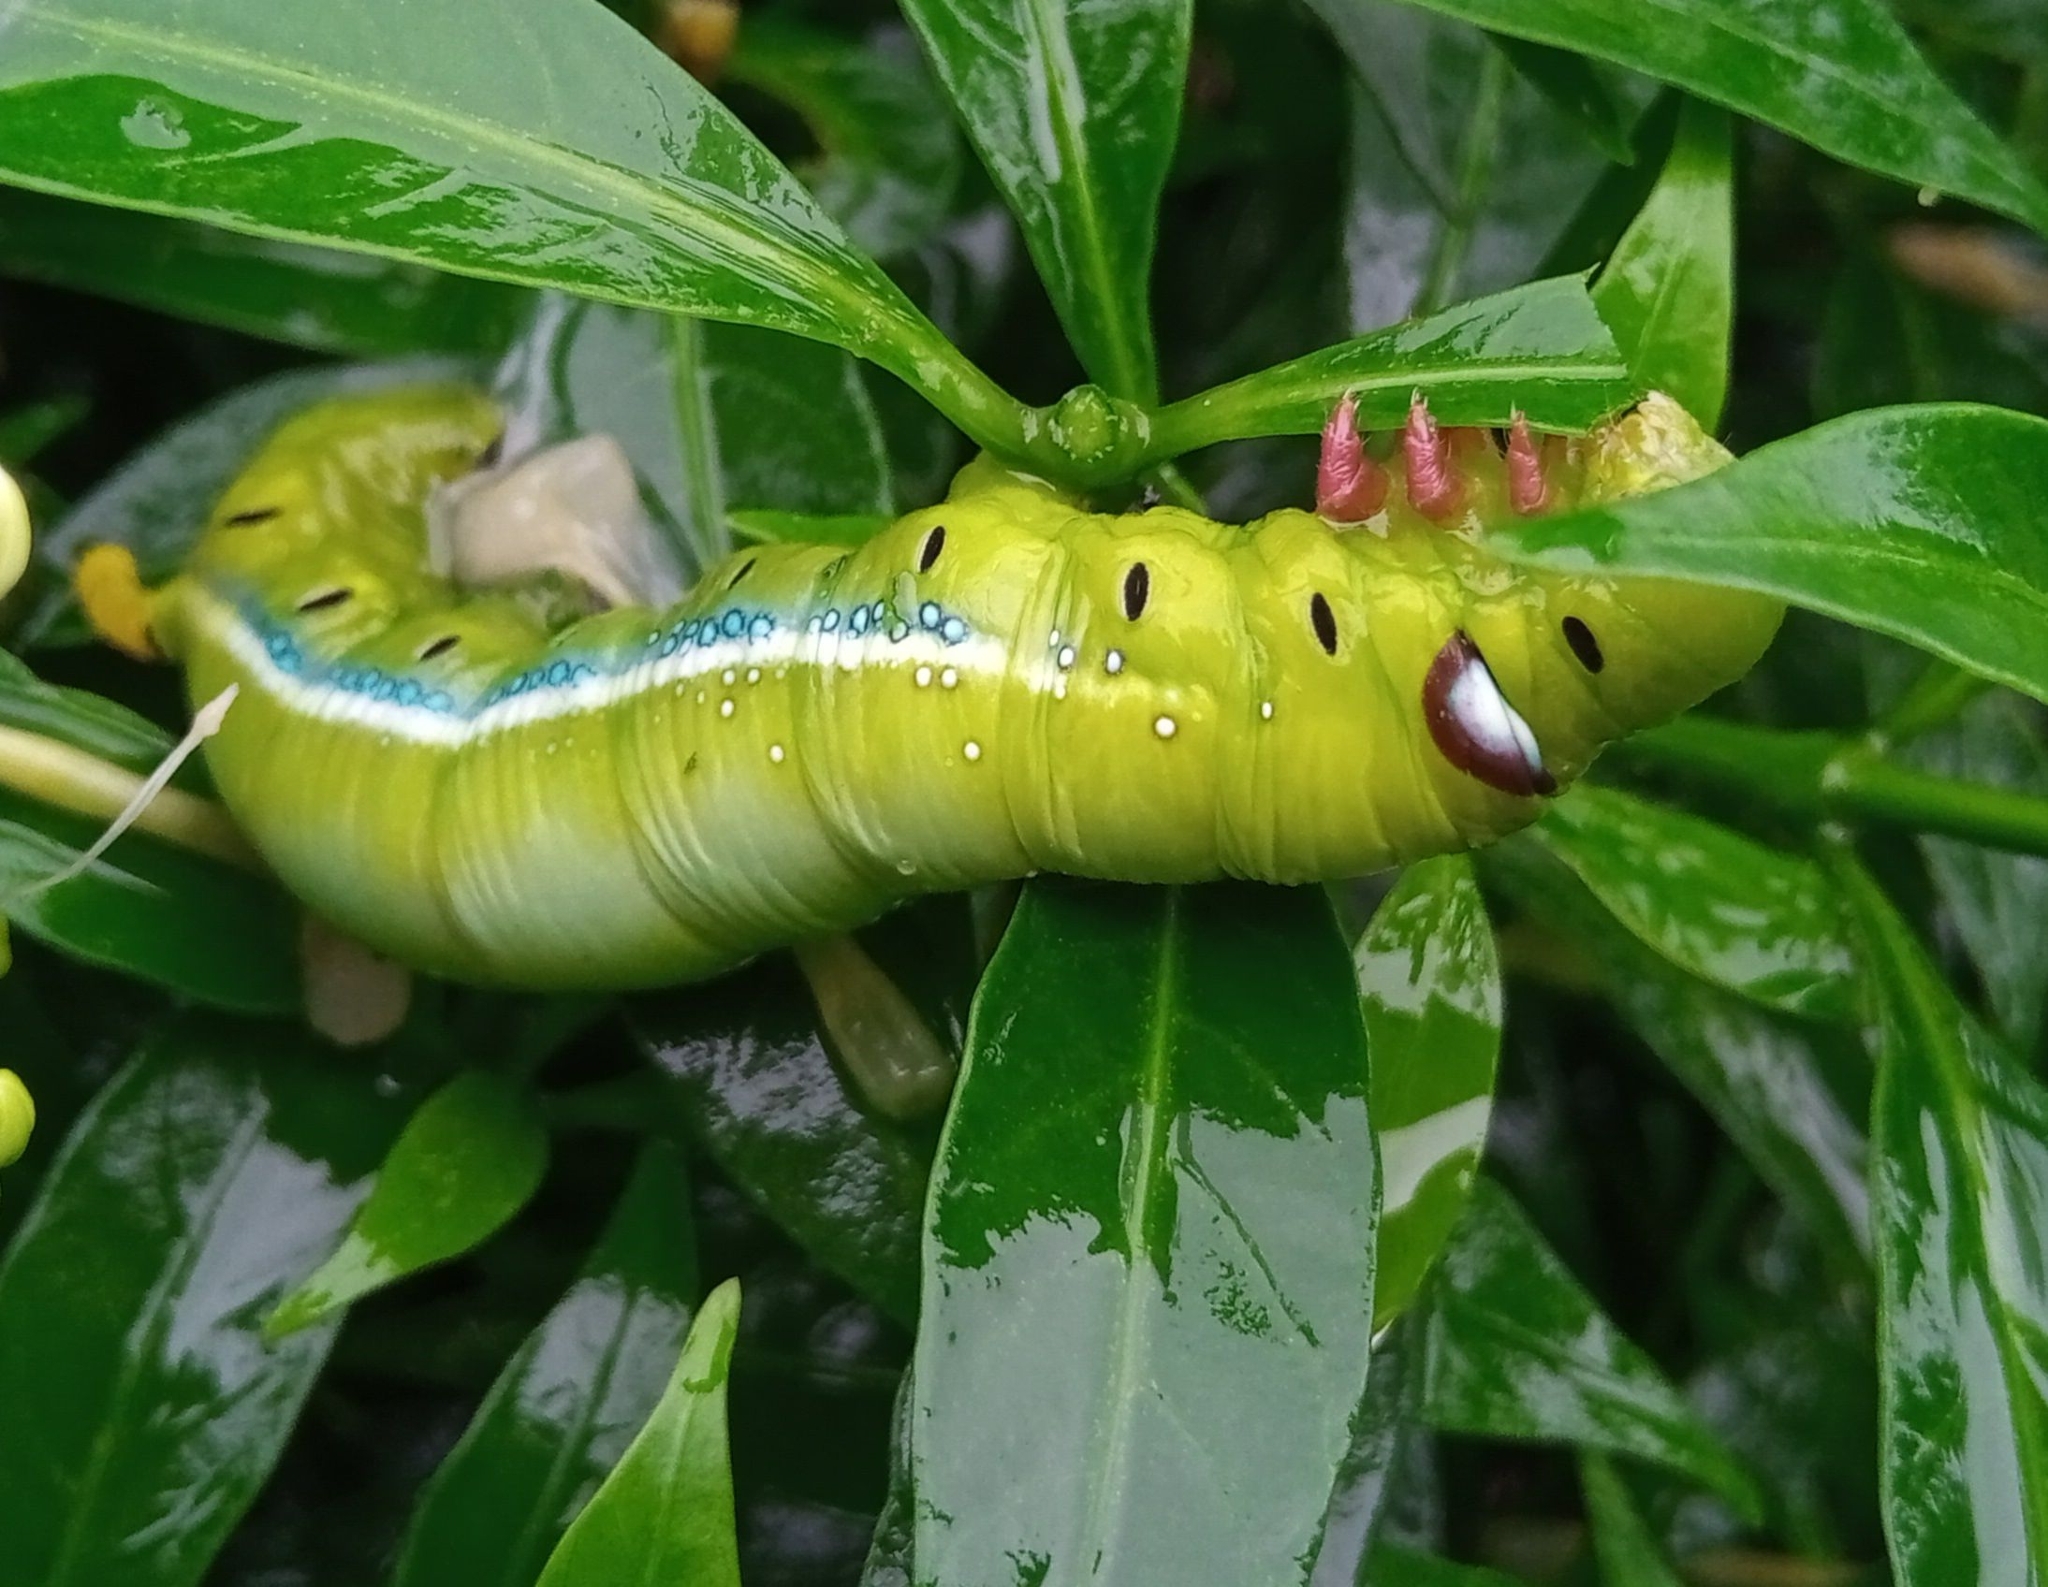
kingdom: Animalia
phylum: Arthropoda
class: Insecta
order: Lepidoptera
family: Sphingidae
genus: Daphnis
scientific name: Daphnis nerii
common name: Oleander hawk-moth
